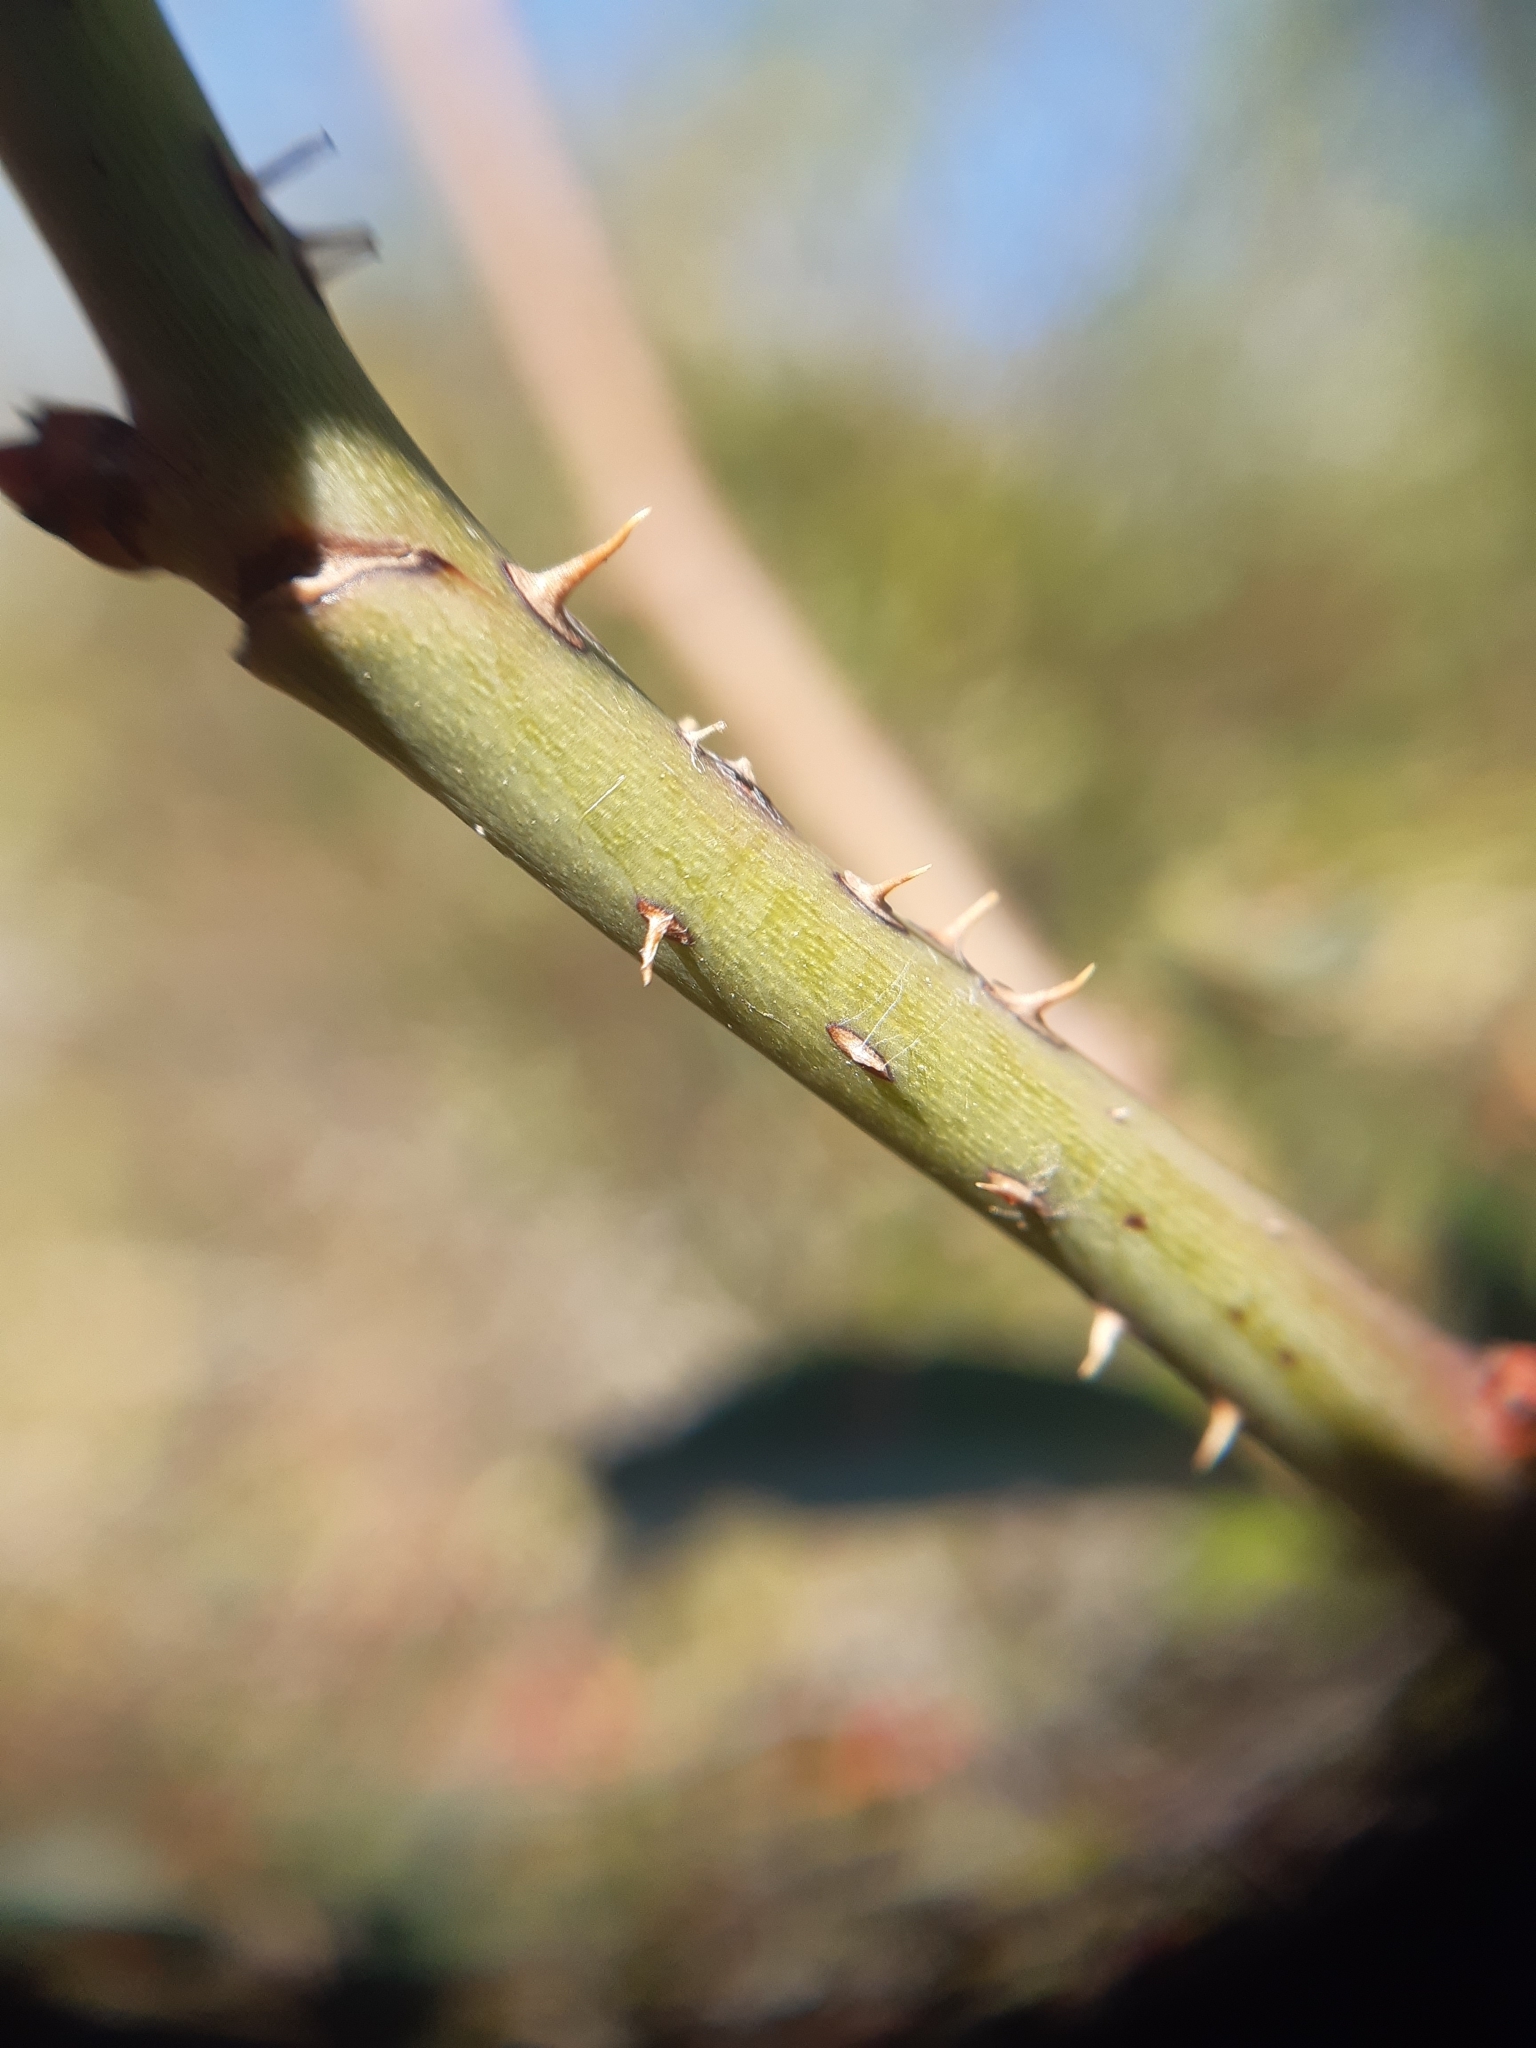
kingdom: Plantae
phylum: Tracheophyta
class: Magnoliopsida
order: Rosales
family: Rosaceae
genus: Rosa
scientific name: Rosa marginata
